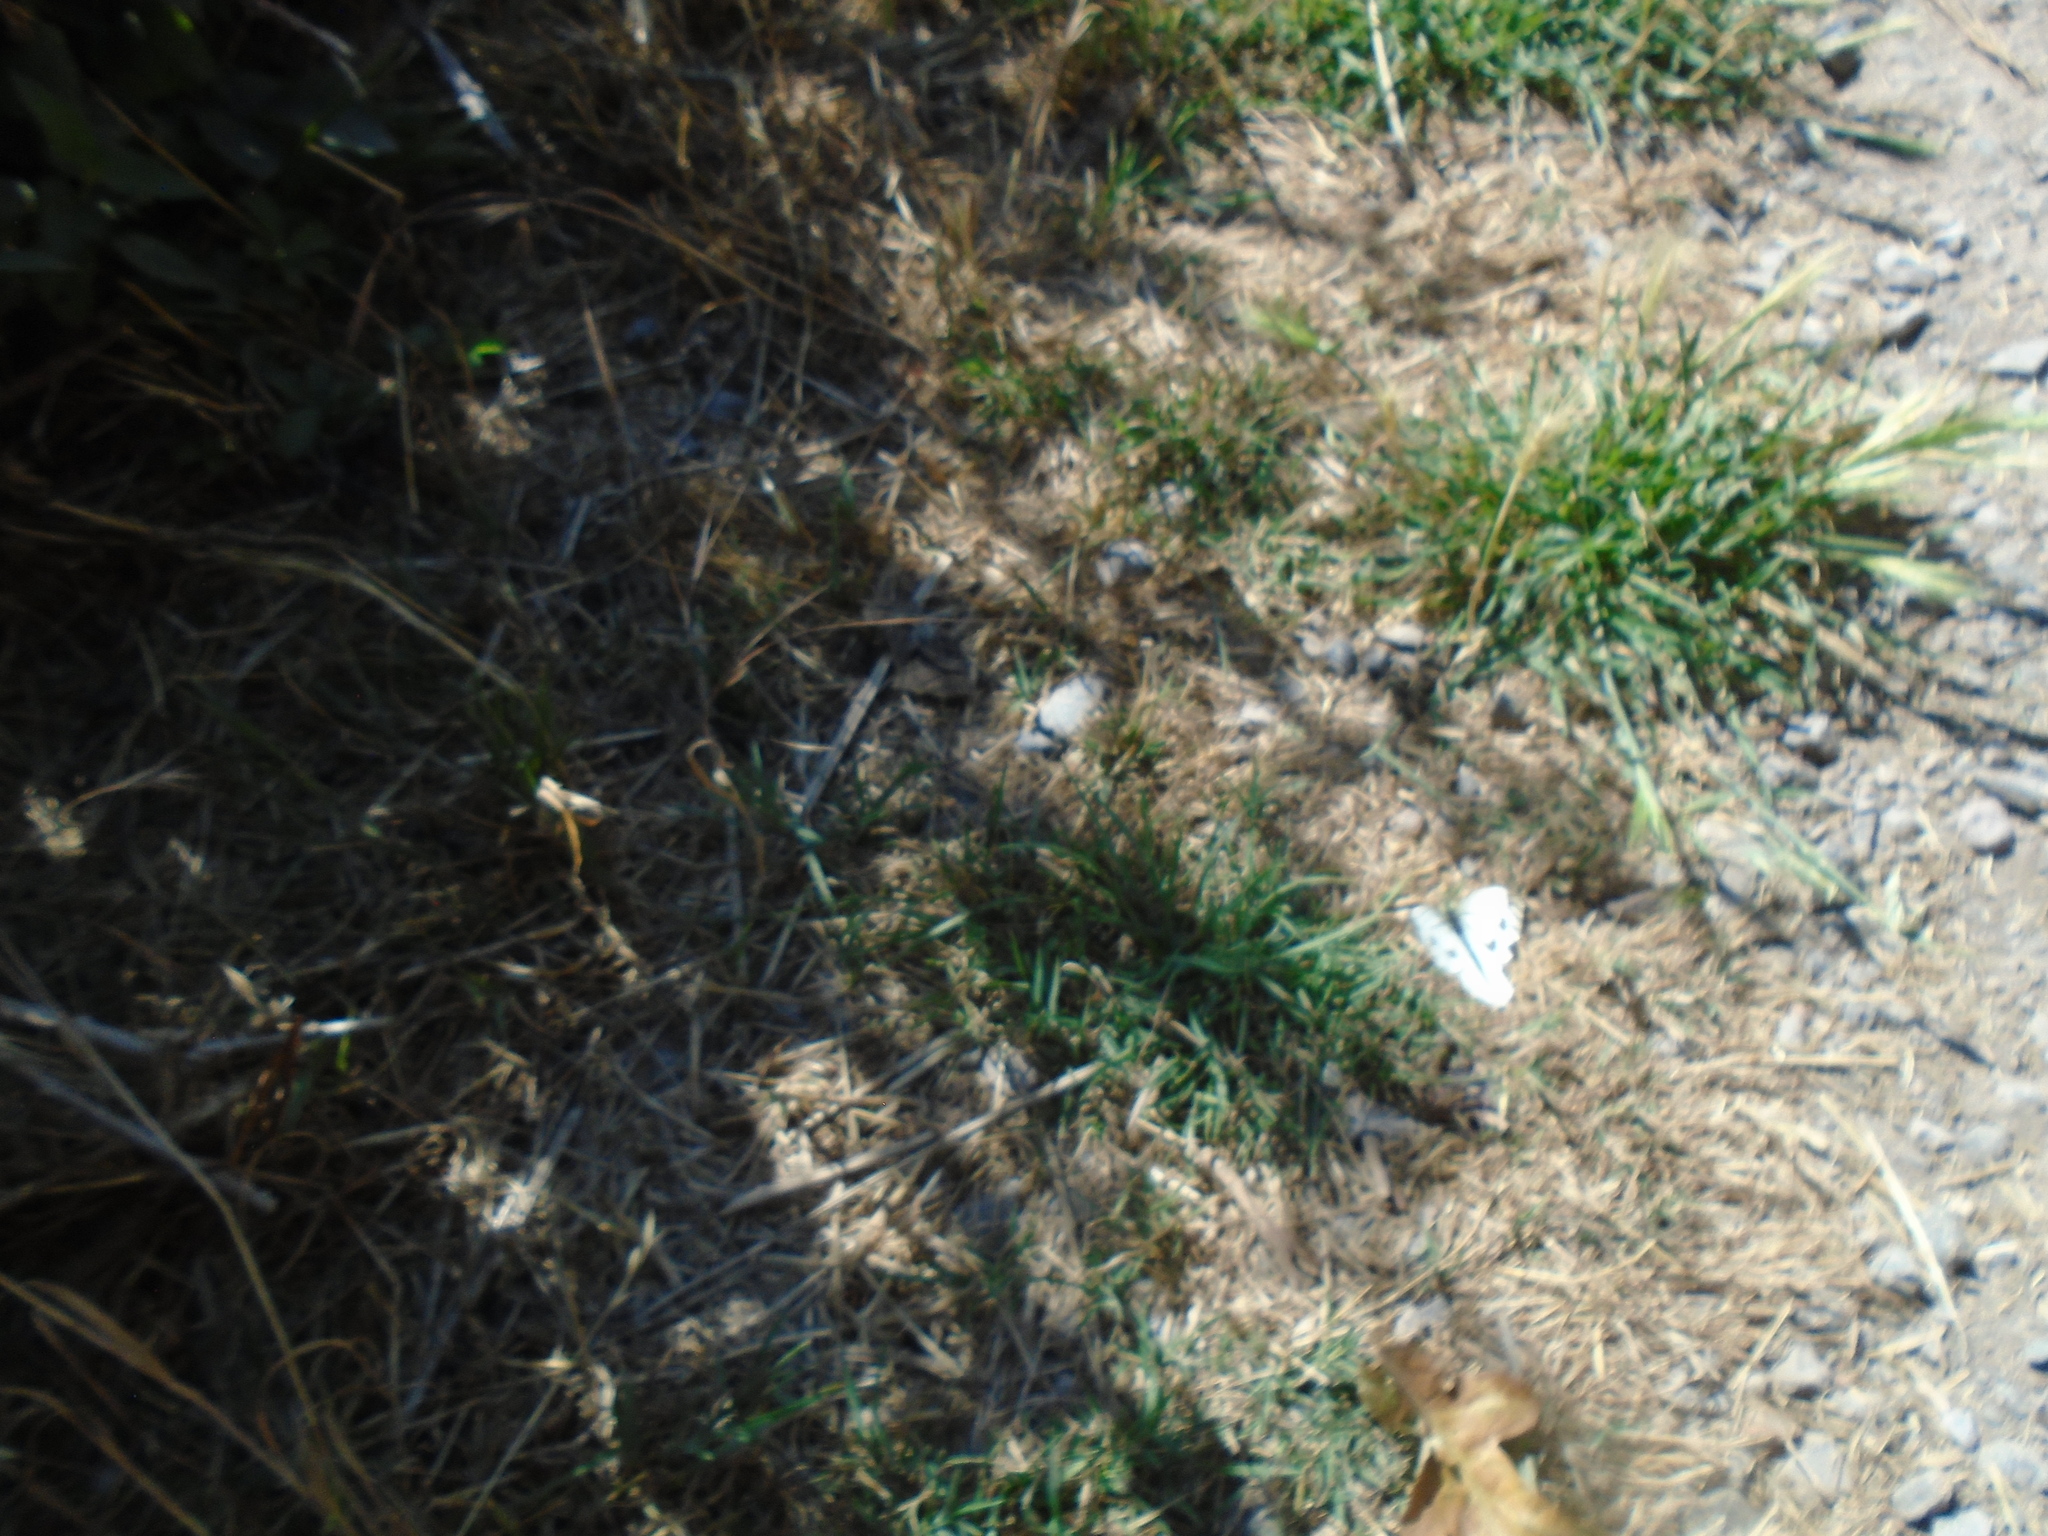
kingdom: Animalia
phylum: Arthropoda
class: Insecta
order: Lepidoptera
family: Pieridae
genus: Pieris
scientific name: Pieris napi
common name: Green-veined white
